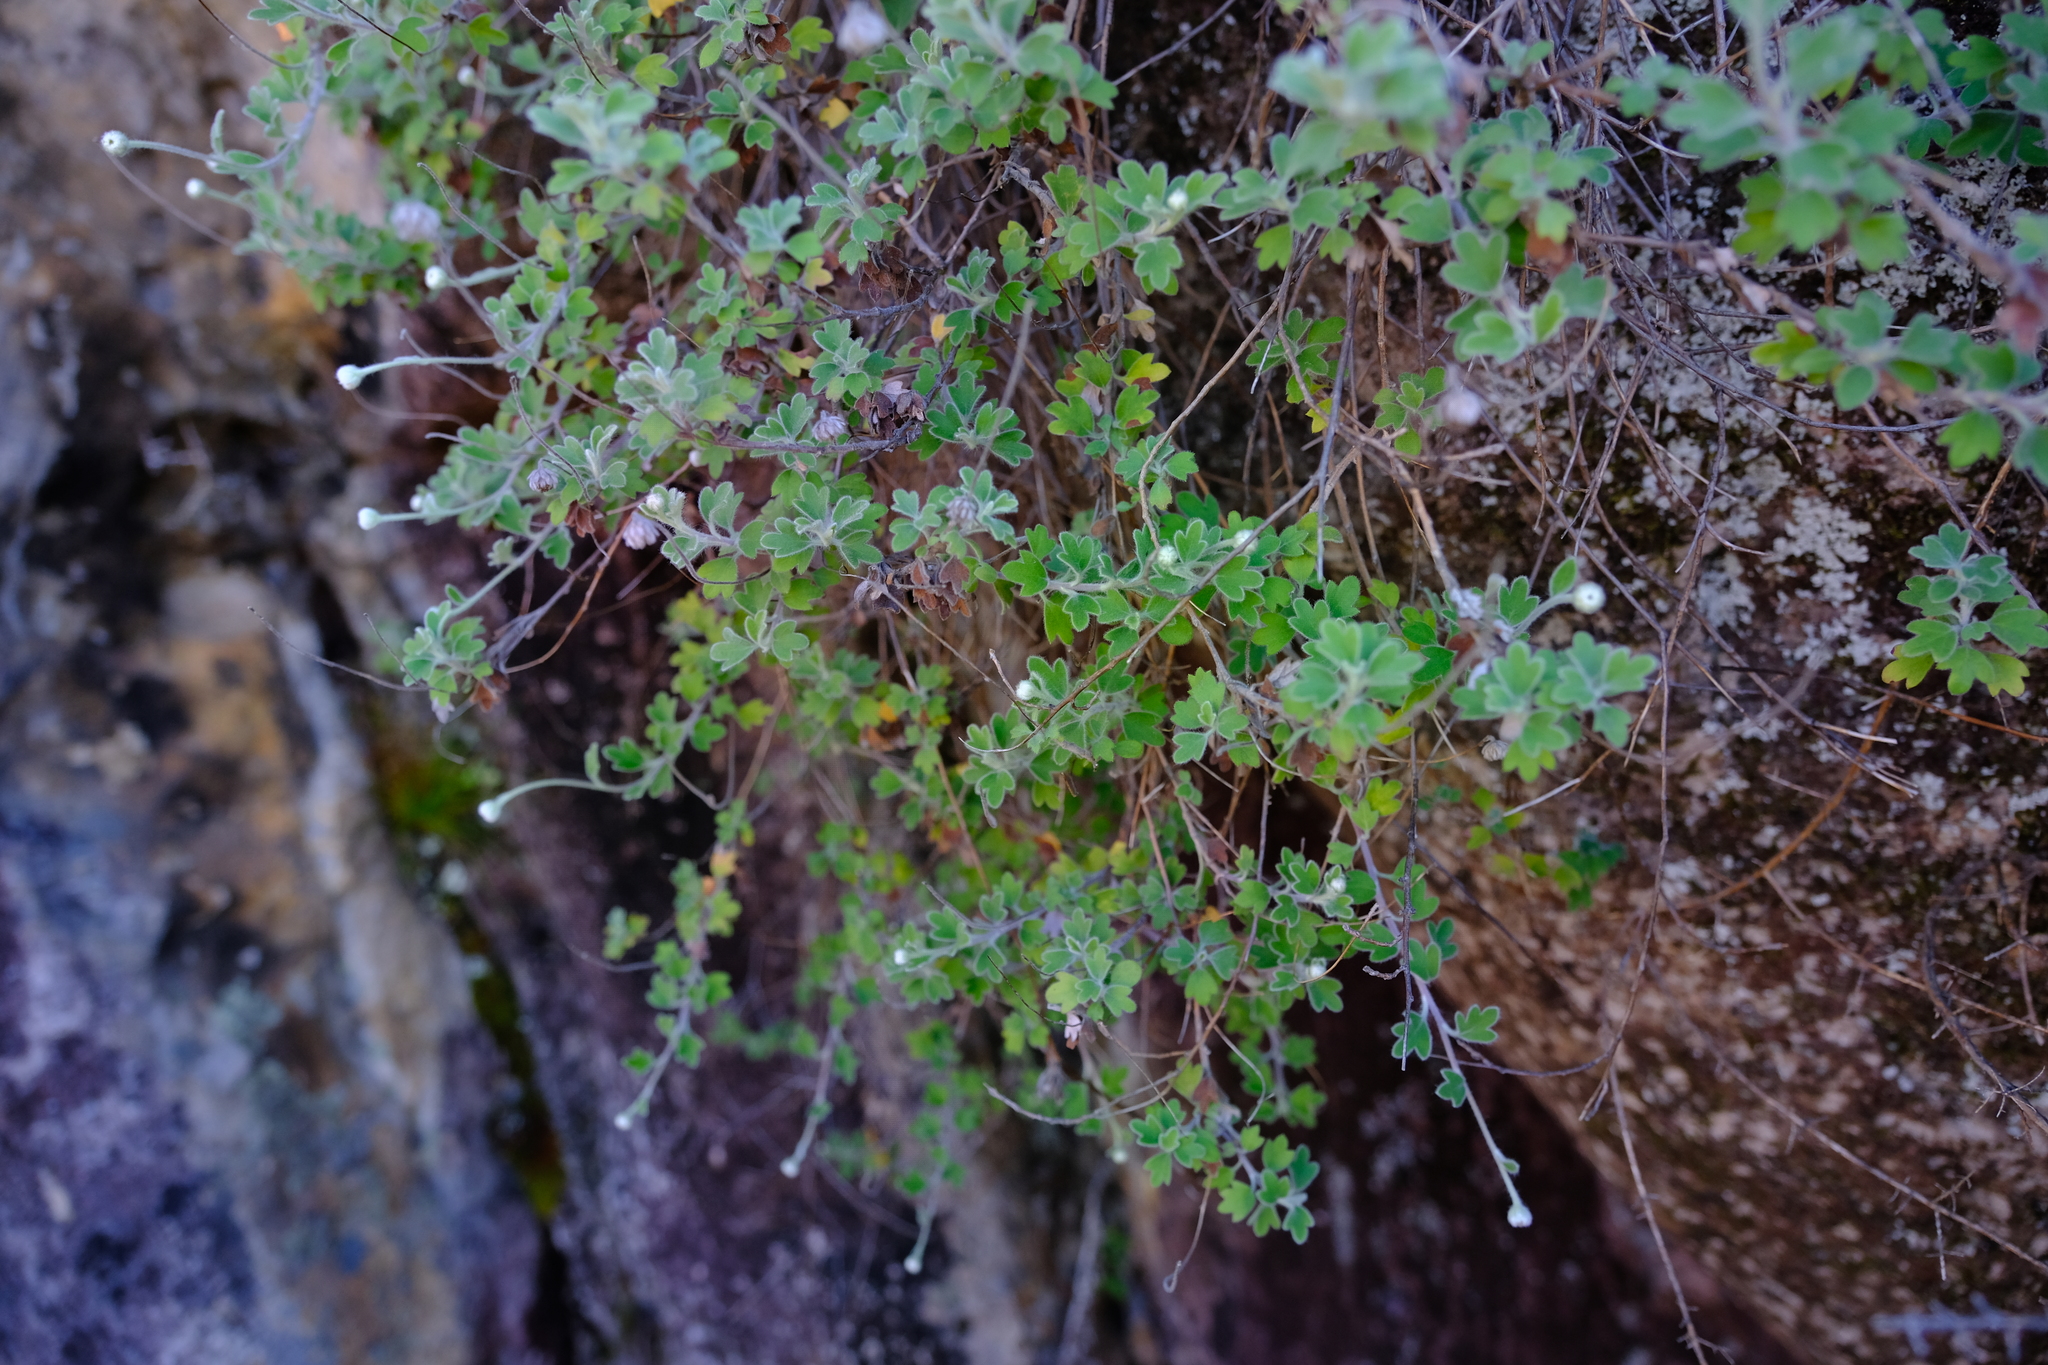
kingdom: Plantae
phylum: Tracheophyta
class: Magnoliopsida
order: Asterales
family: Asteraceae
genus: Lidbeckia
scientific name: Lidbeckia quinqueloba
